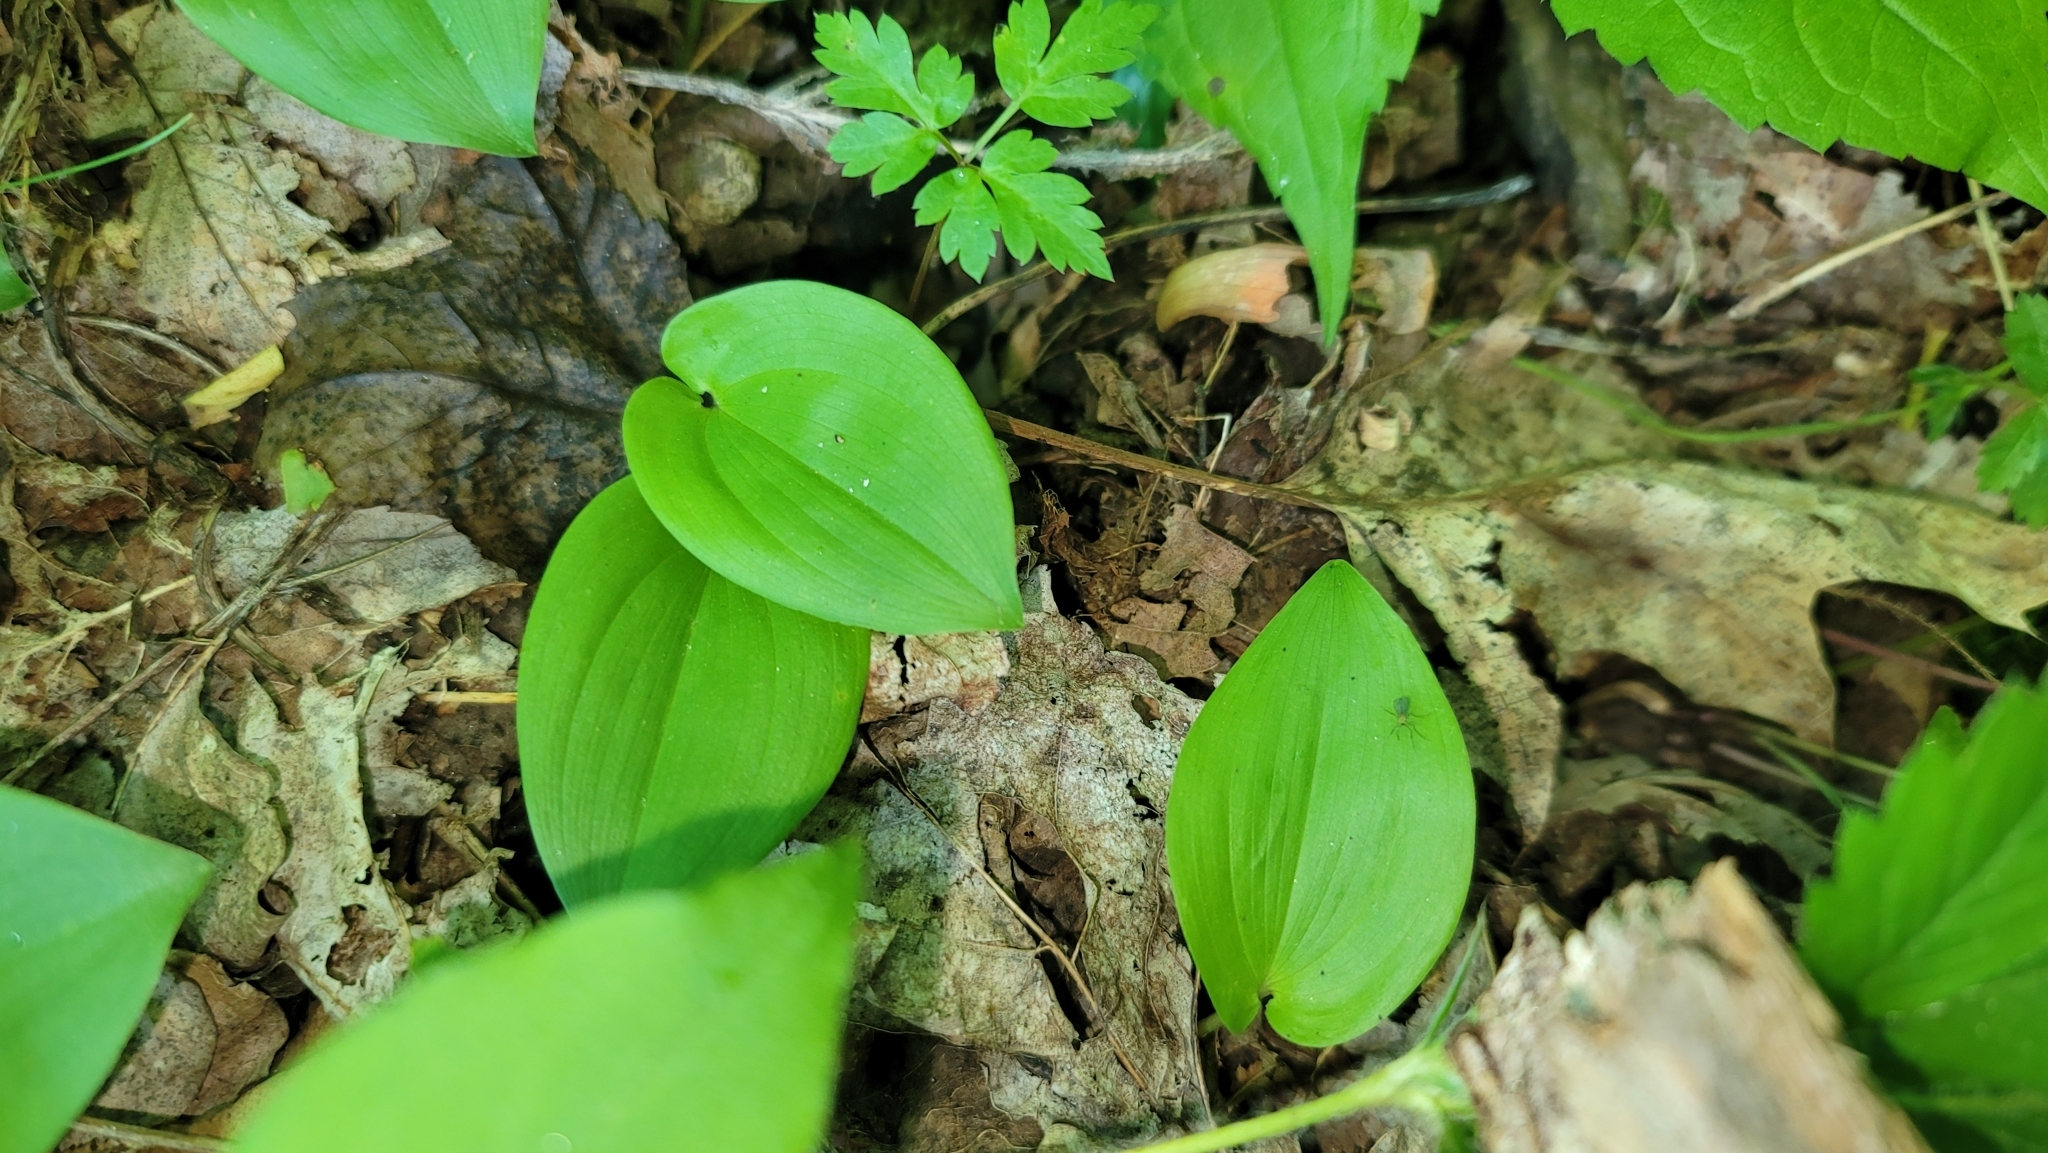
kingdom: Plantae
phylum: Tracheophyta
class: Liliopsida
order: Asparagales
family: Asparagaceae
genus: Maianthemum
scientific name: Maianthemum canadense
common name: False lily-of-the-valley
